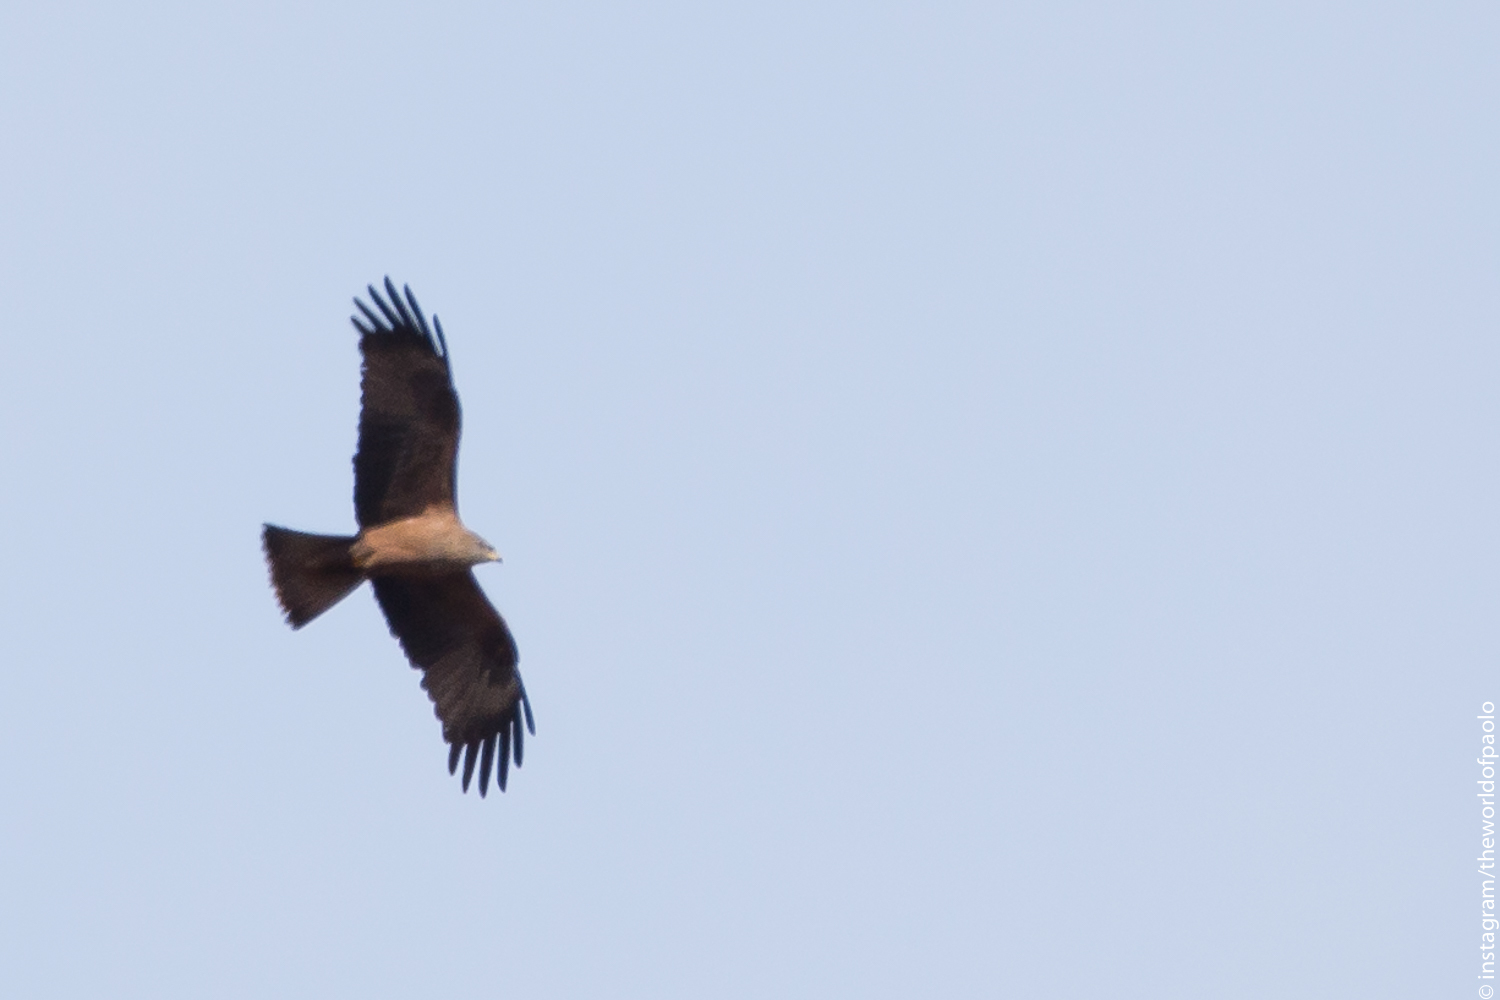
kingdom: Animalia
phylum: Chordata
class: Aves
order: Accipitriformes
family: Accipitridae
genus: Milvus
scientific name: Milvus migrans
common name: Black kite
